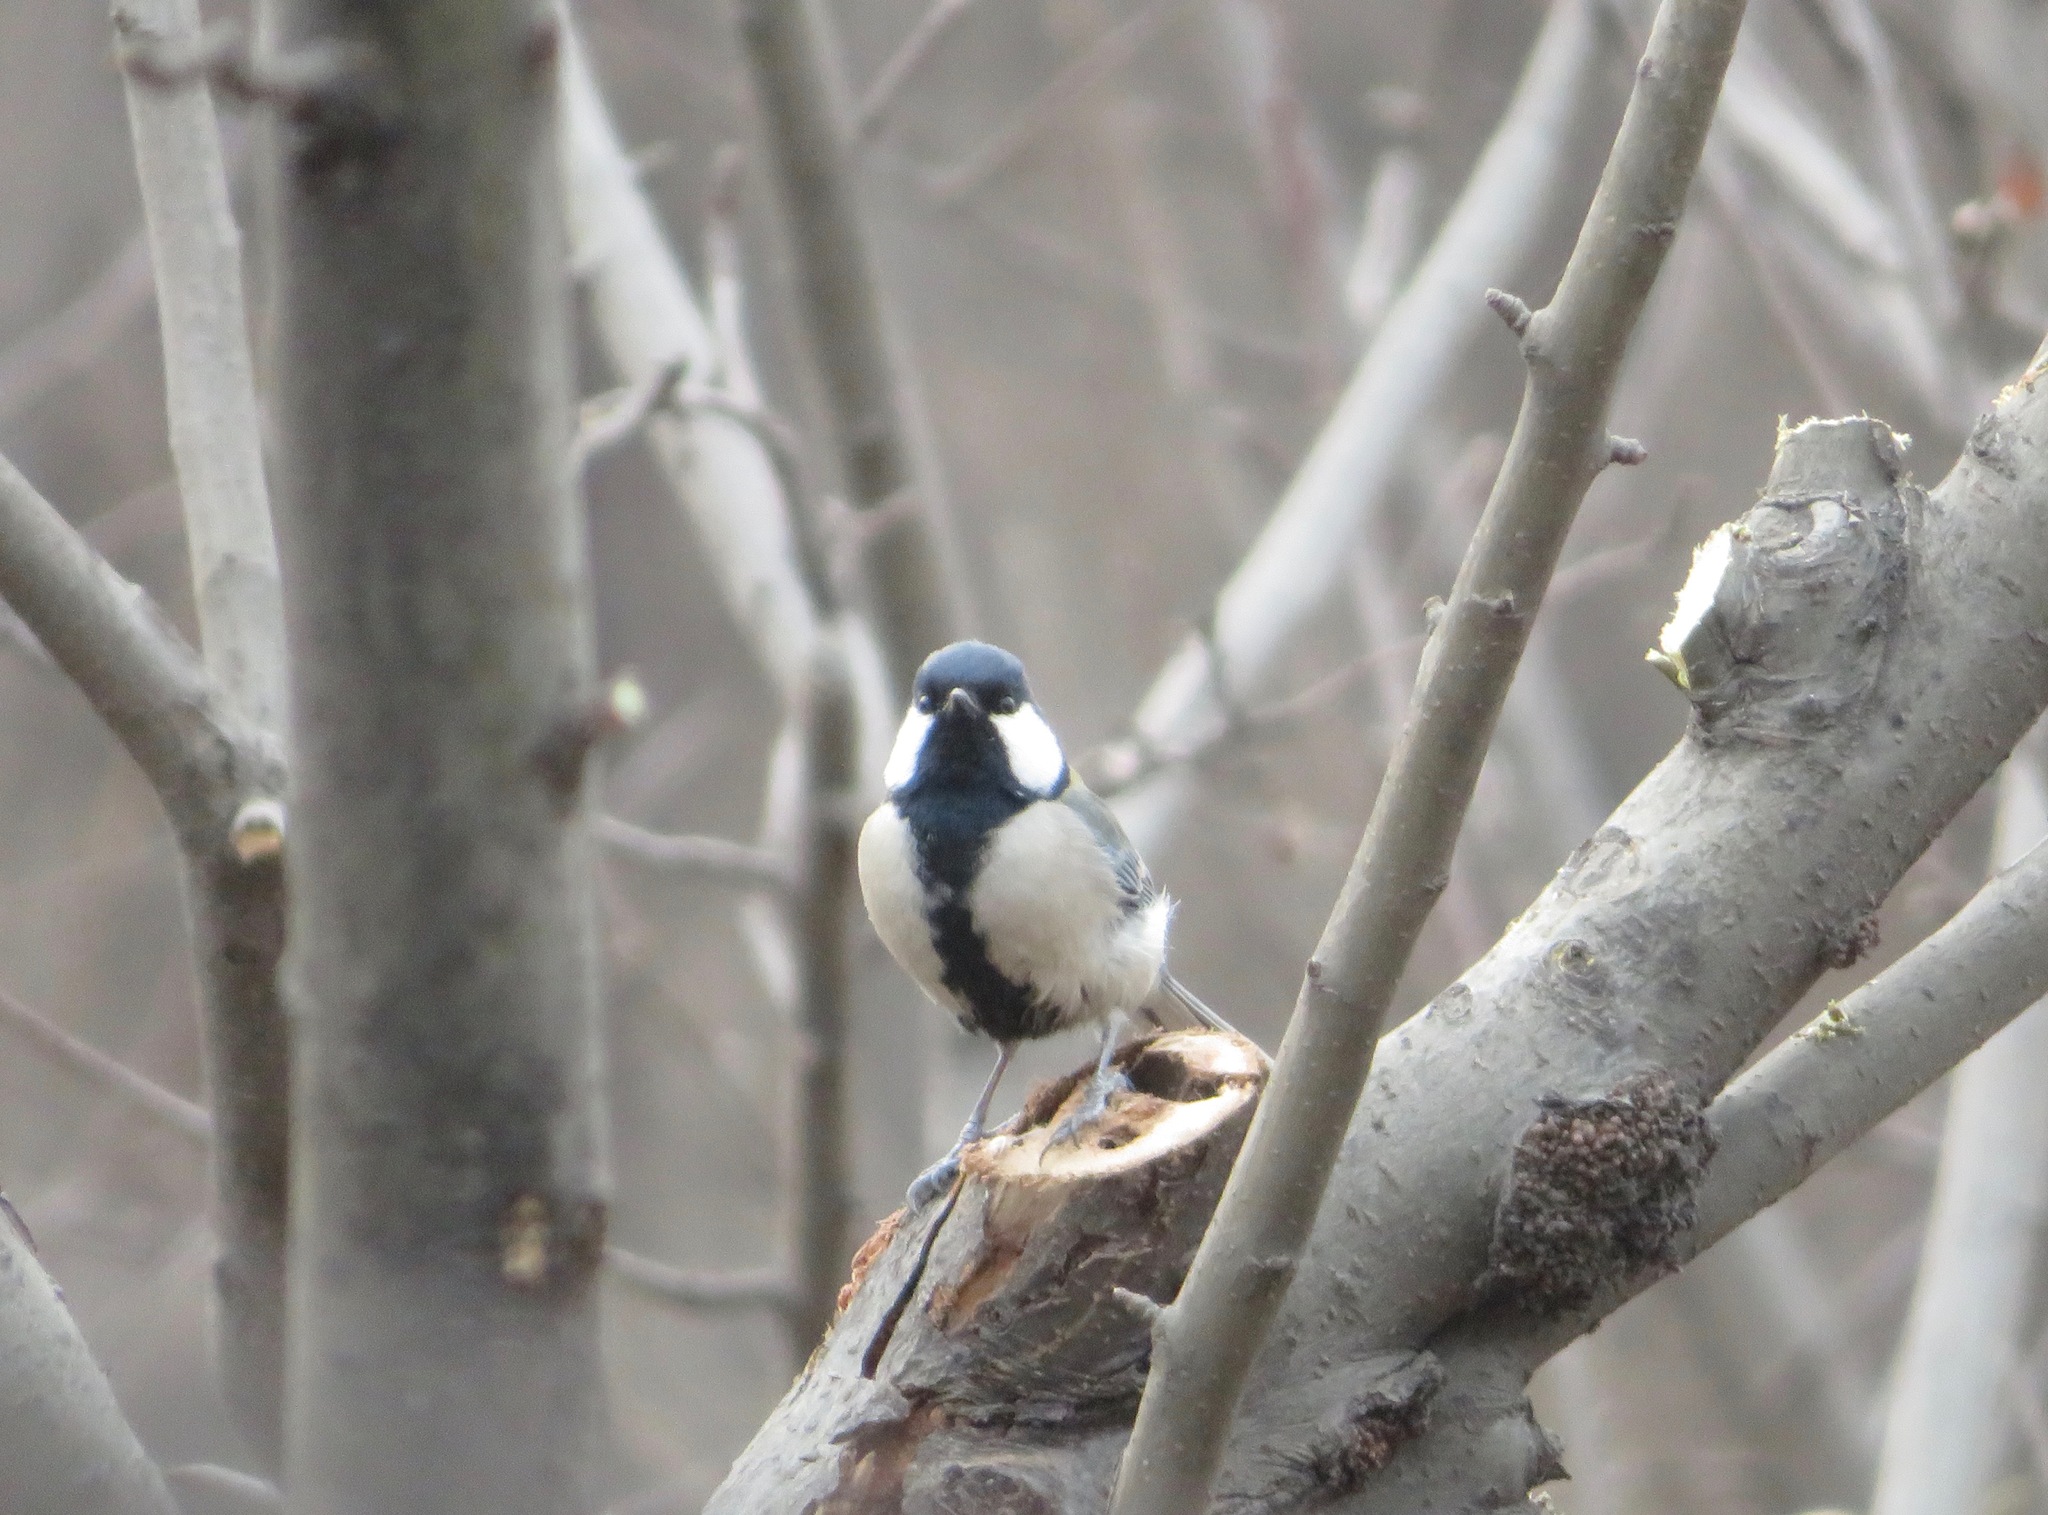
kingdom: Animalia
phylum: Chordata
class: Aves
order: Passeriformes
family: Paridae
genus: Parus
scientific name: Parus minor
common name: Japanese tit
